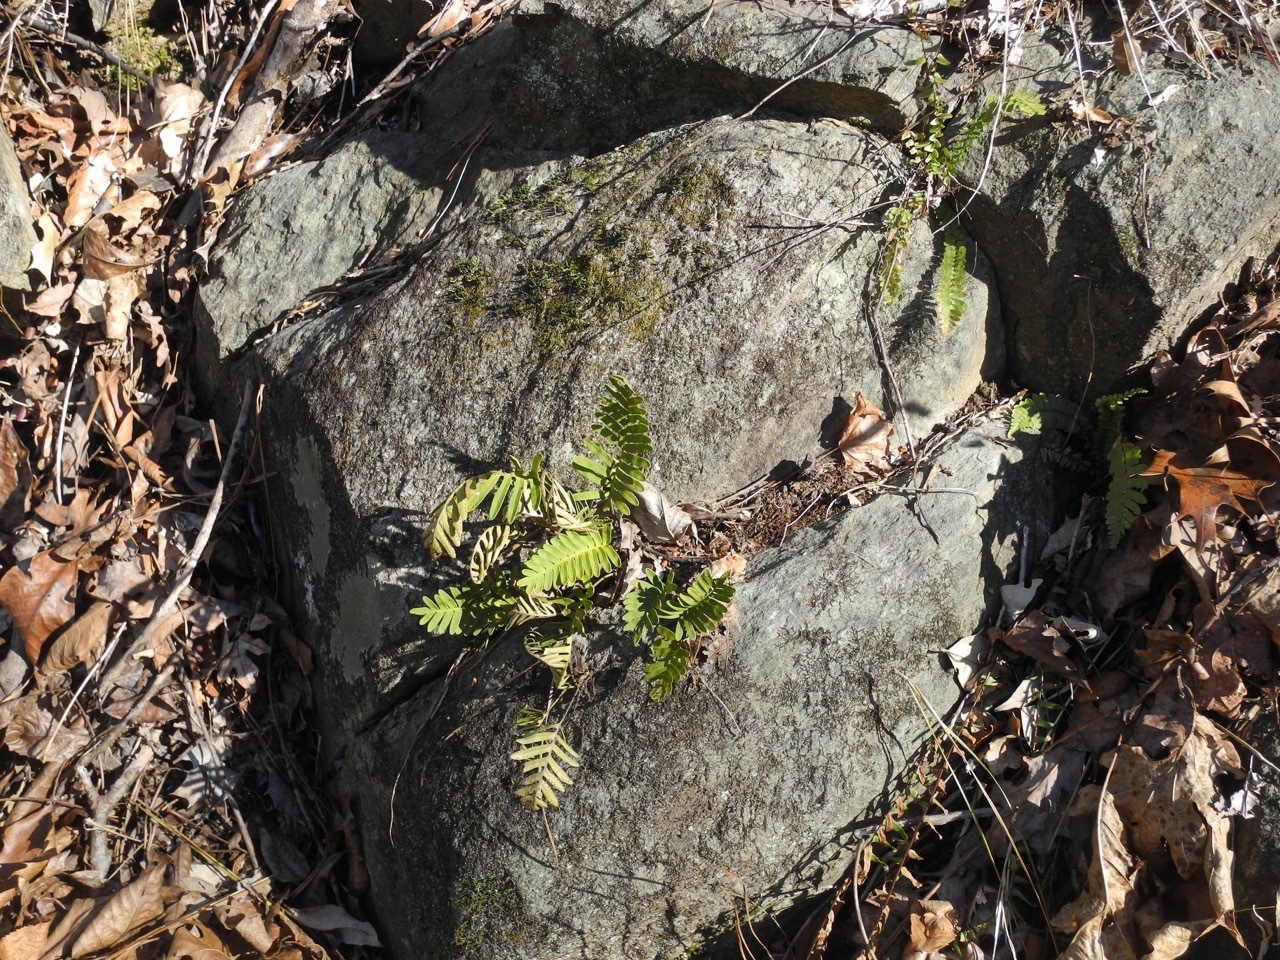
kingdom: Plantae
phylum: Tracheophyta
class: Polypodiopsida
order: Polypodiales
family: Polypodiaceae
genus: Pleopeltis
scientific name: Pleopeltis michauxiana
